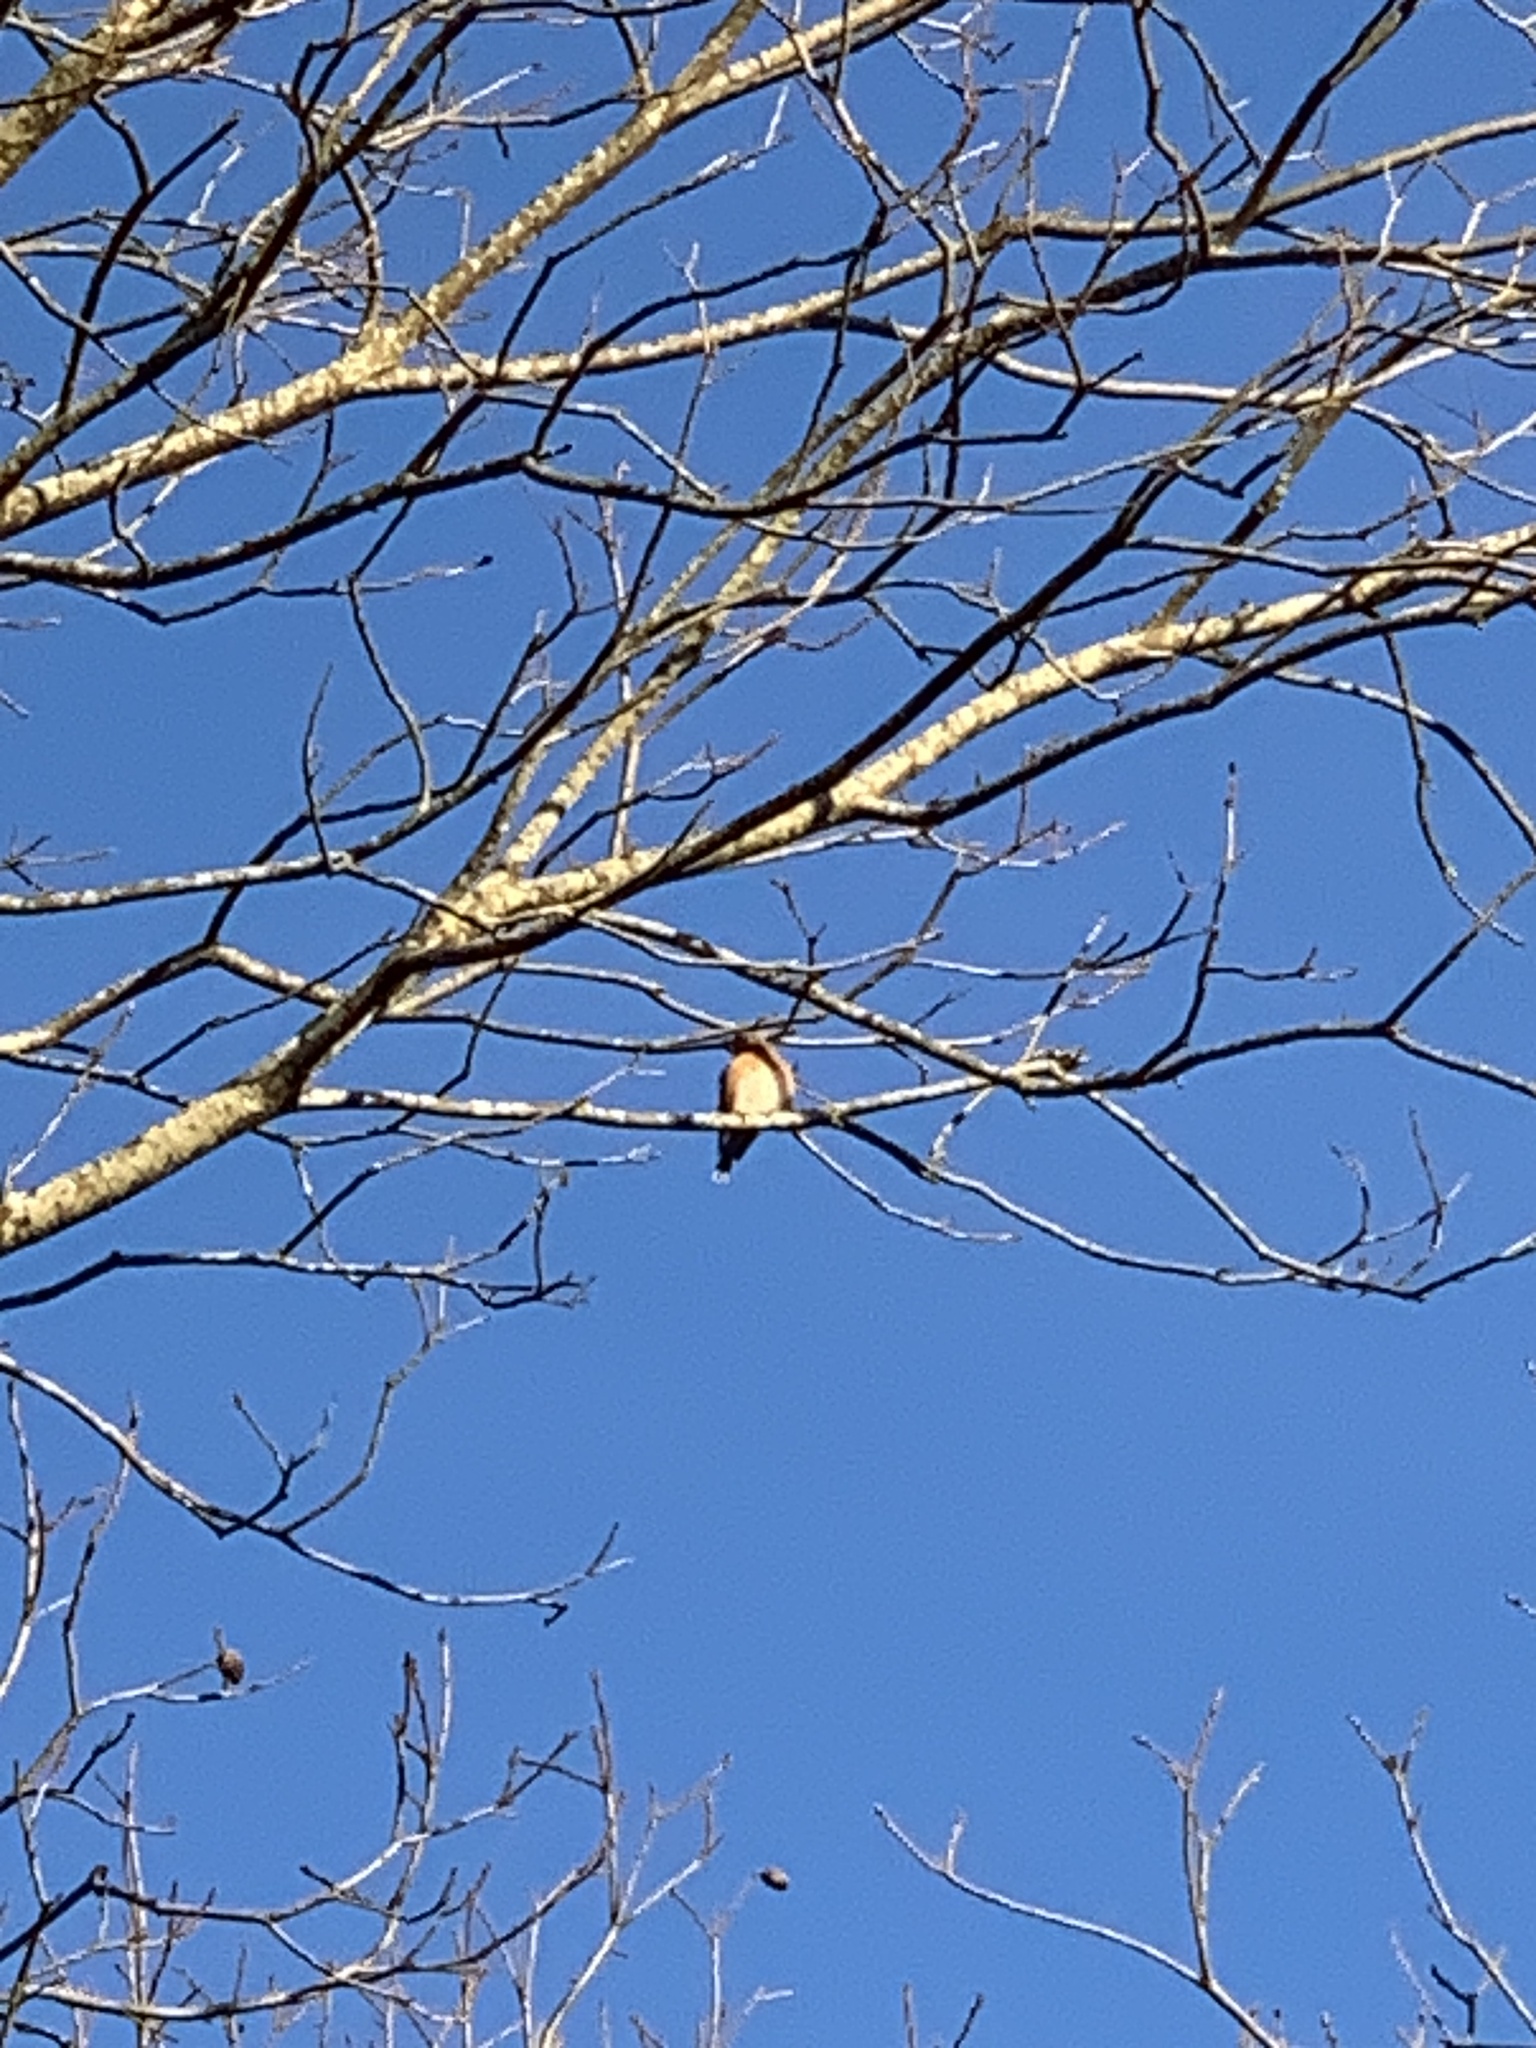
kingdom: Animalia
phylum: Chordata
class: Aves
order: Passeriformes
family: Turdidae
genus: Sialia
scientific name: Sialia sialis
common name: Eastern bluebird
